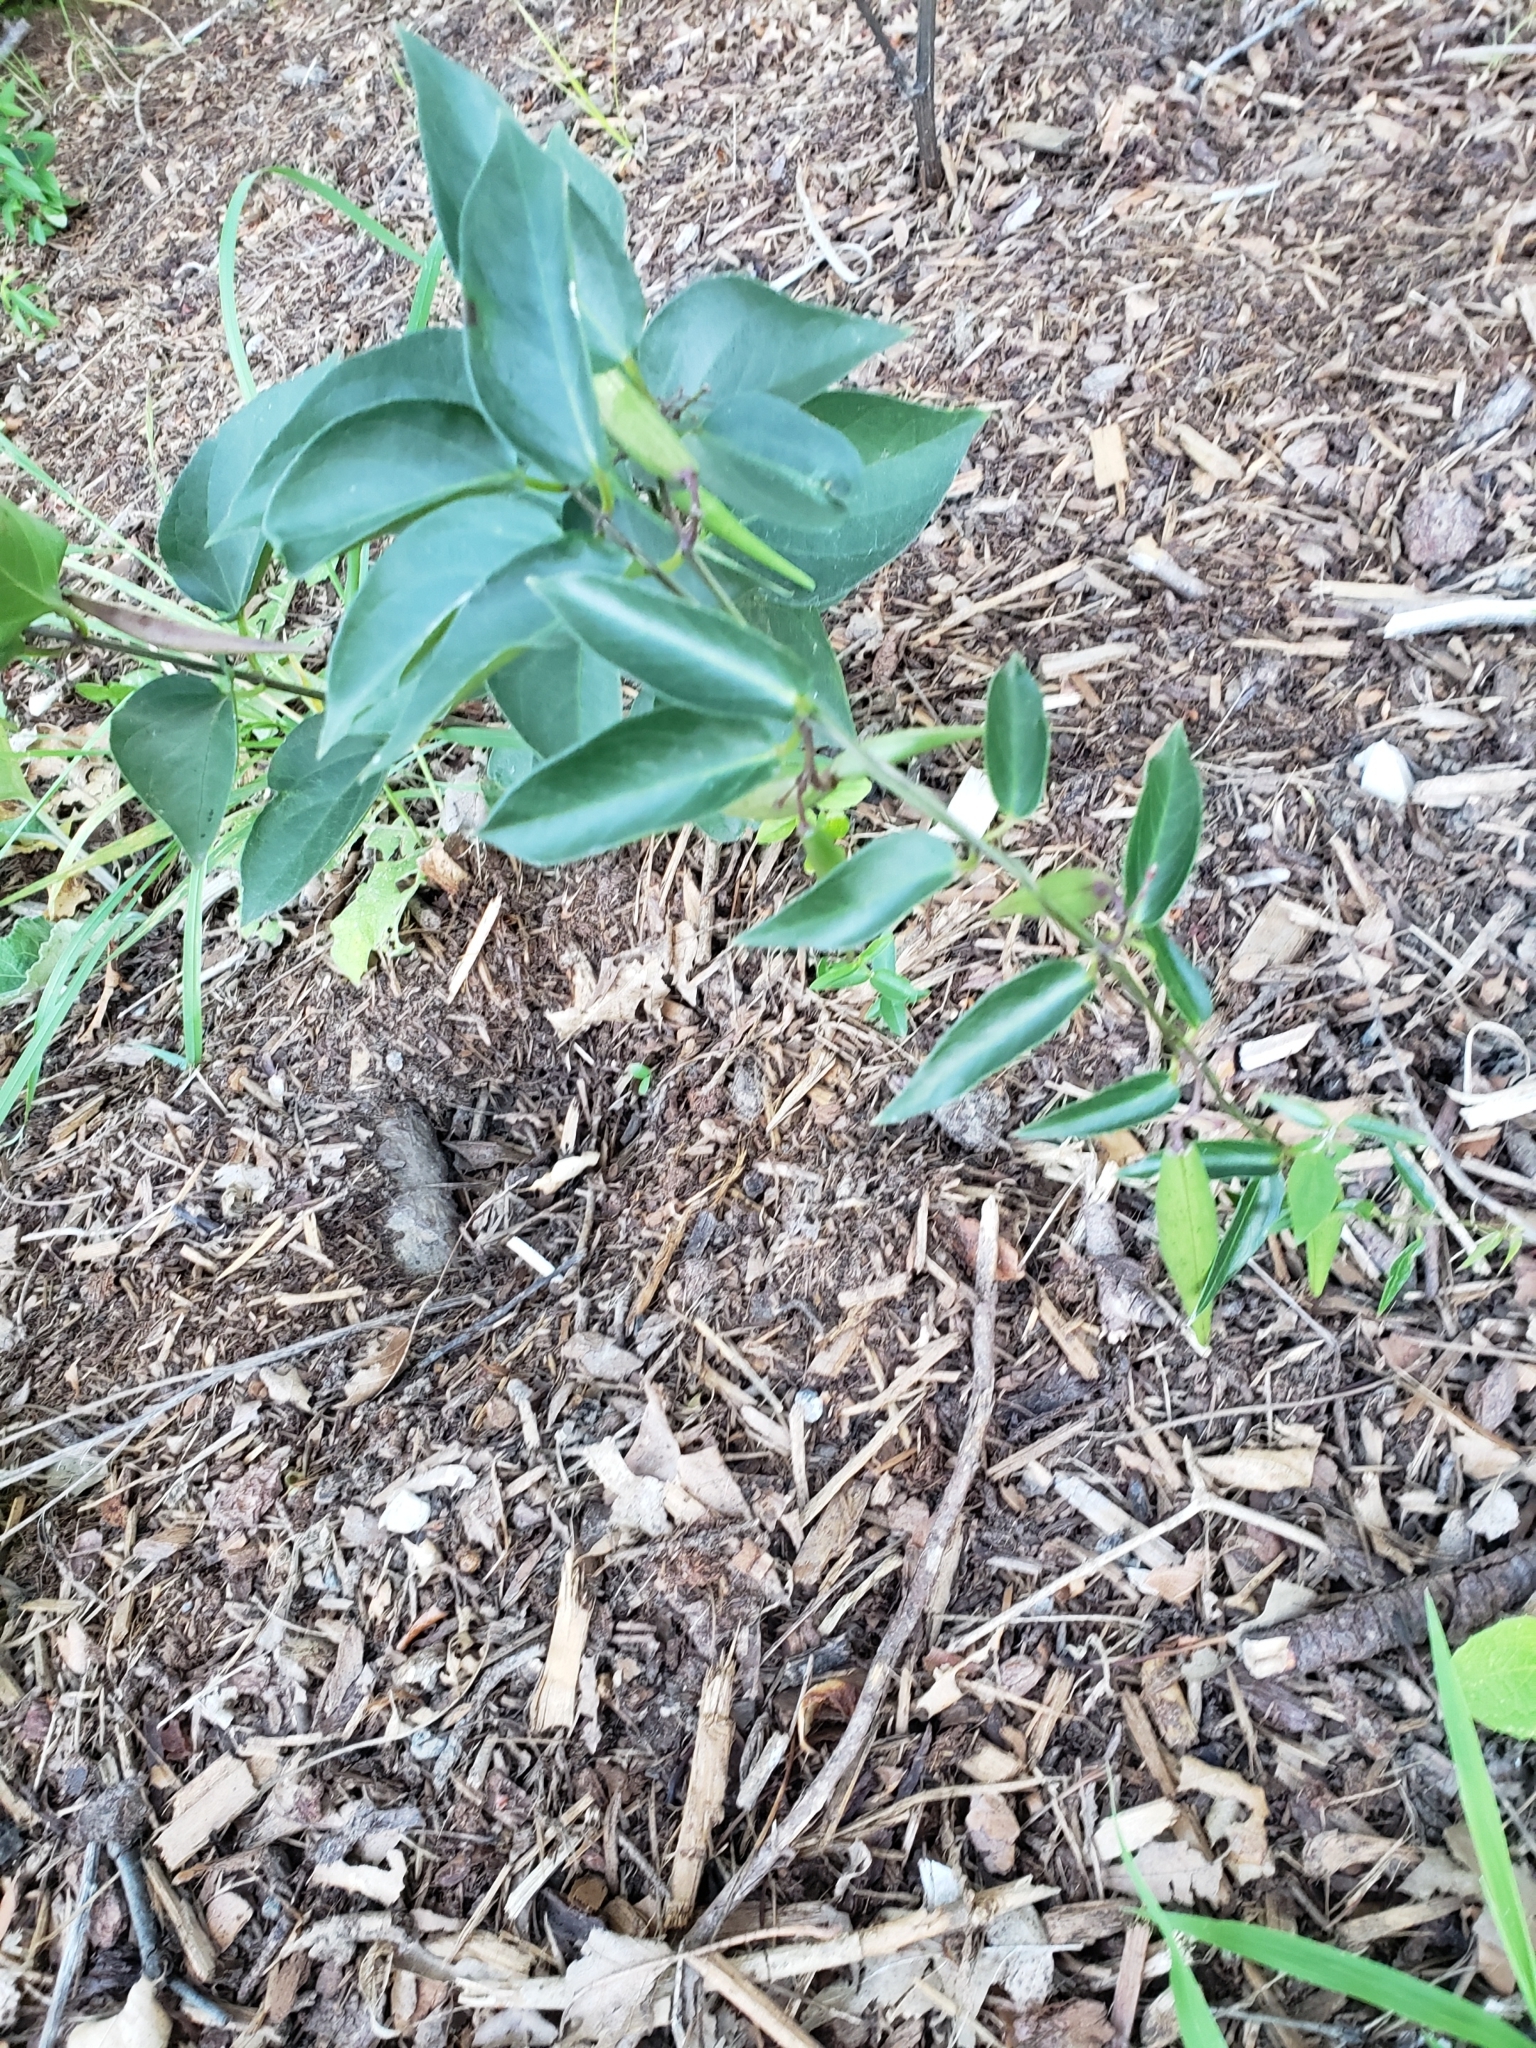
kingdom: Plantae
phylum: Tracheophyta
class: Magnoliopsida
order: Gentianales
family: Apocynaceae
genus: Vincetoxicum
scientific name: Vincetoxicum nigrum
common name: Black swallow-wort
